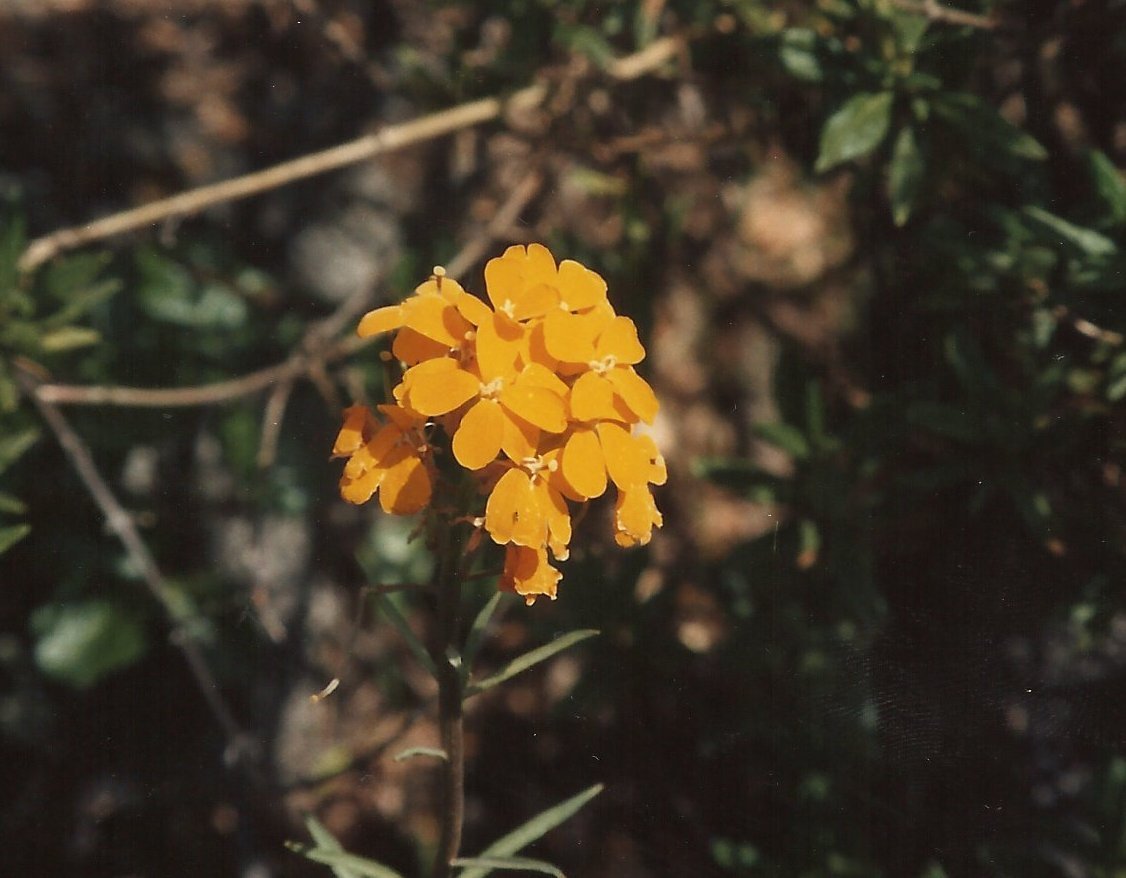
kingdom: Plantae
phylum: Tracheophyta
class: Magnoliopsida
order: Brassicales
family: Brassicaceae
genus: Erysimum
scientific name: Erysimum capitatum
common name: Western wallflower
